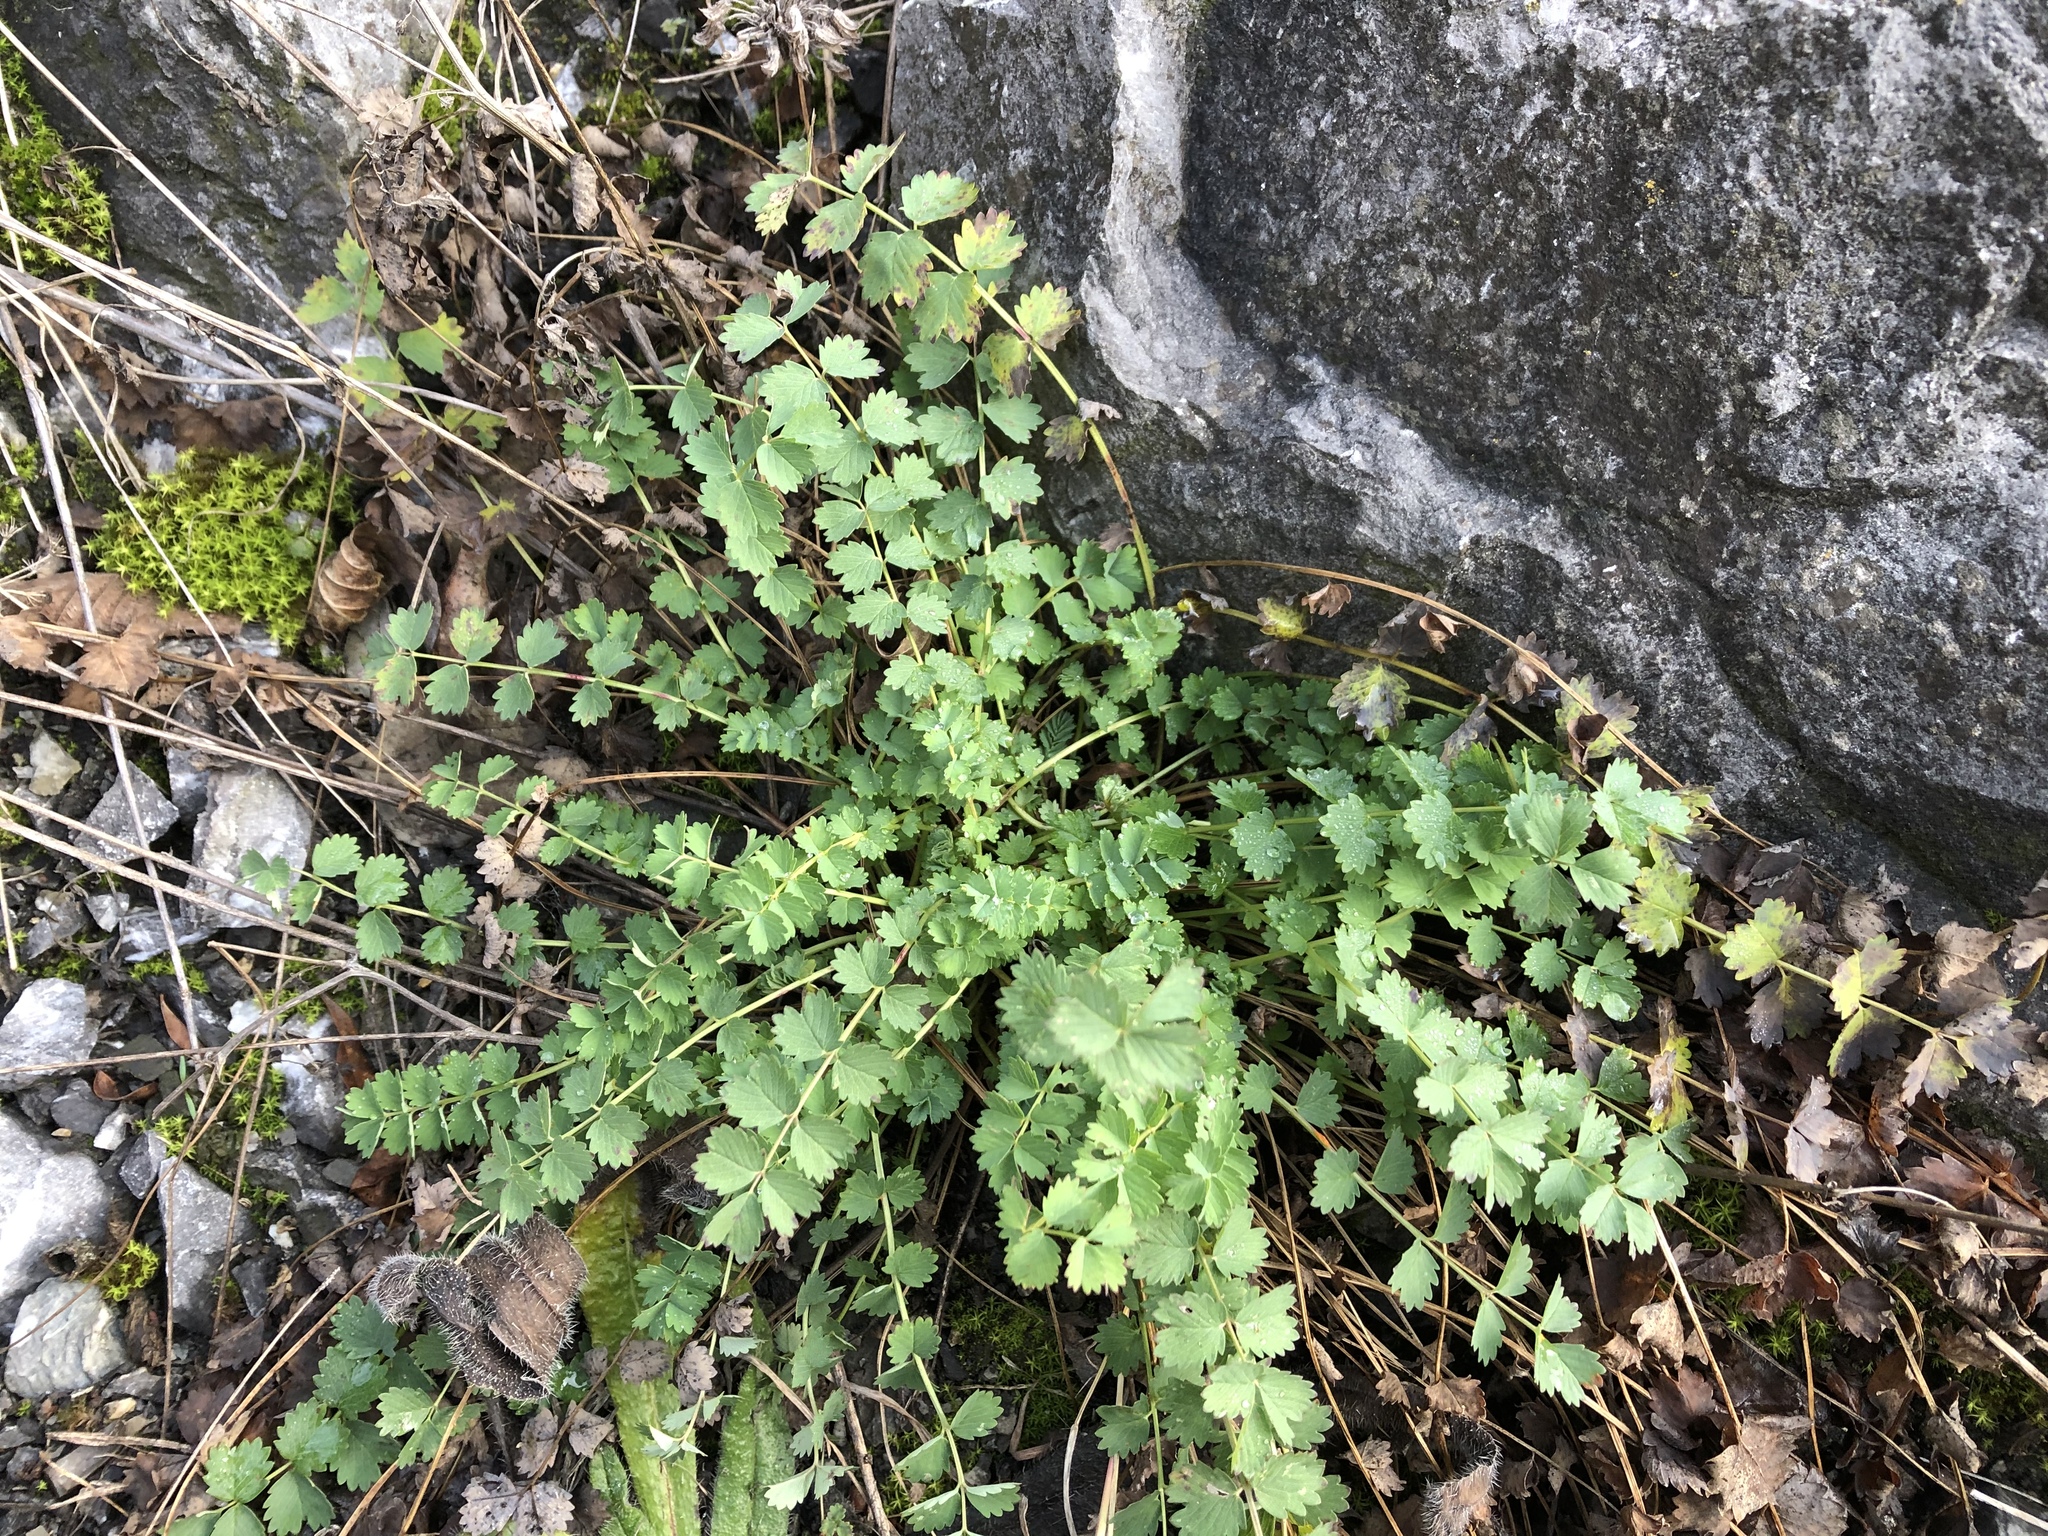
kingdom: Plantae
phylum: Tracheophyta
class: Magnoliopsida
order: Rosales
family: Rosaceae
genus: Poterium
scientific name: Poterium sanguisorba
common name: Salad burnet
